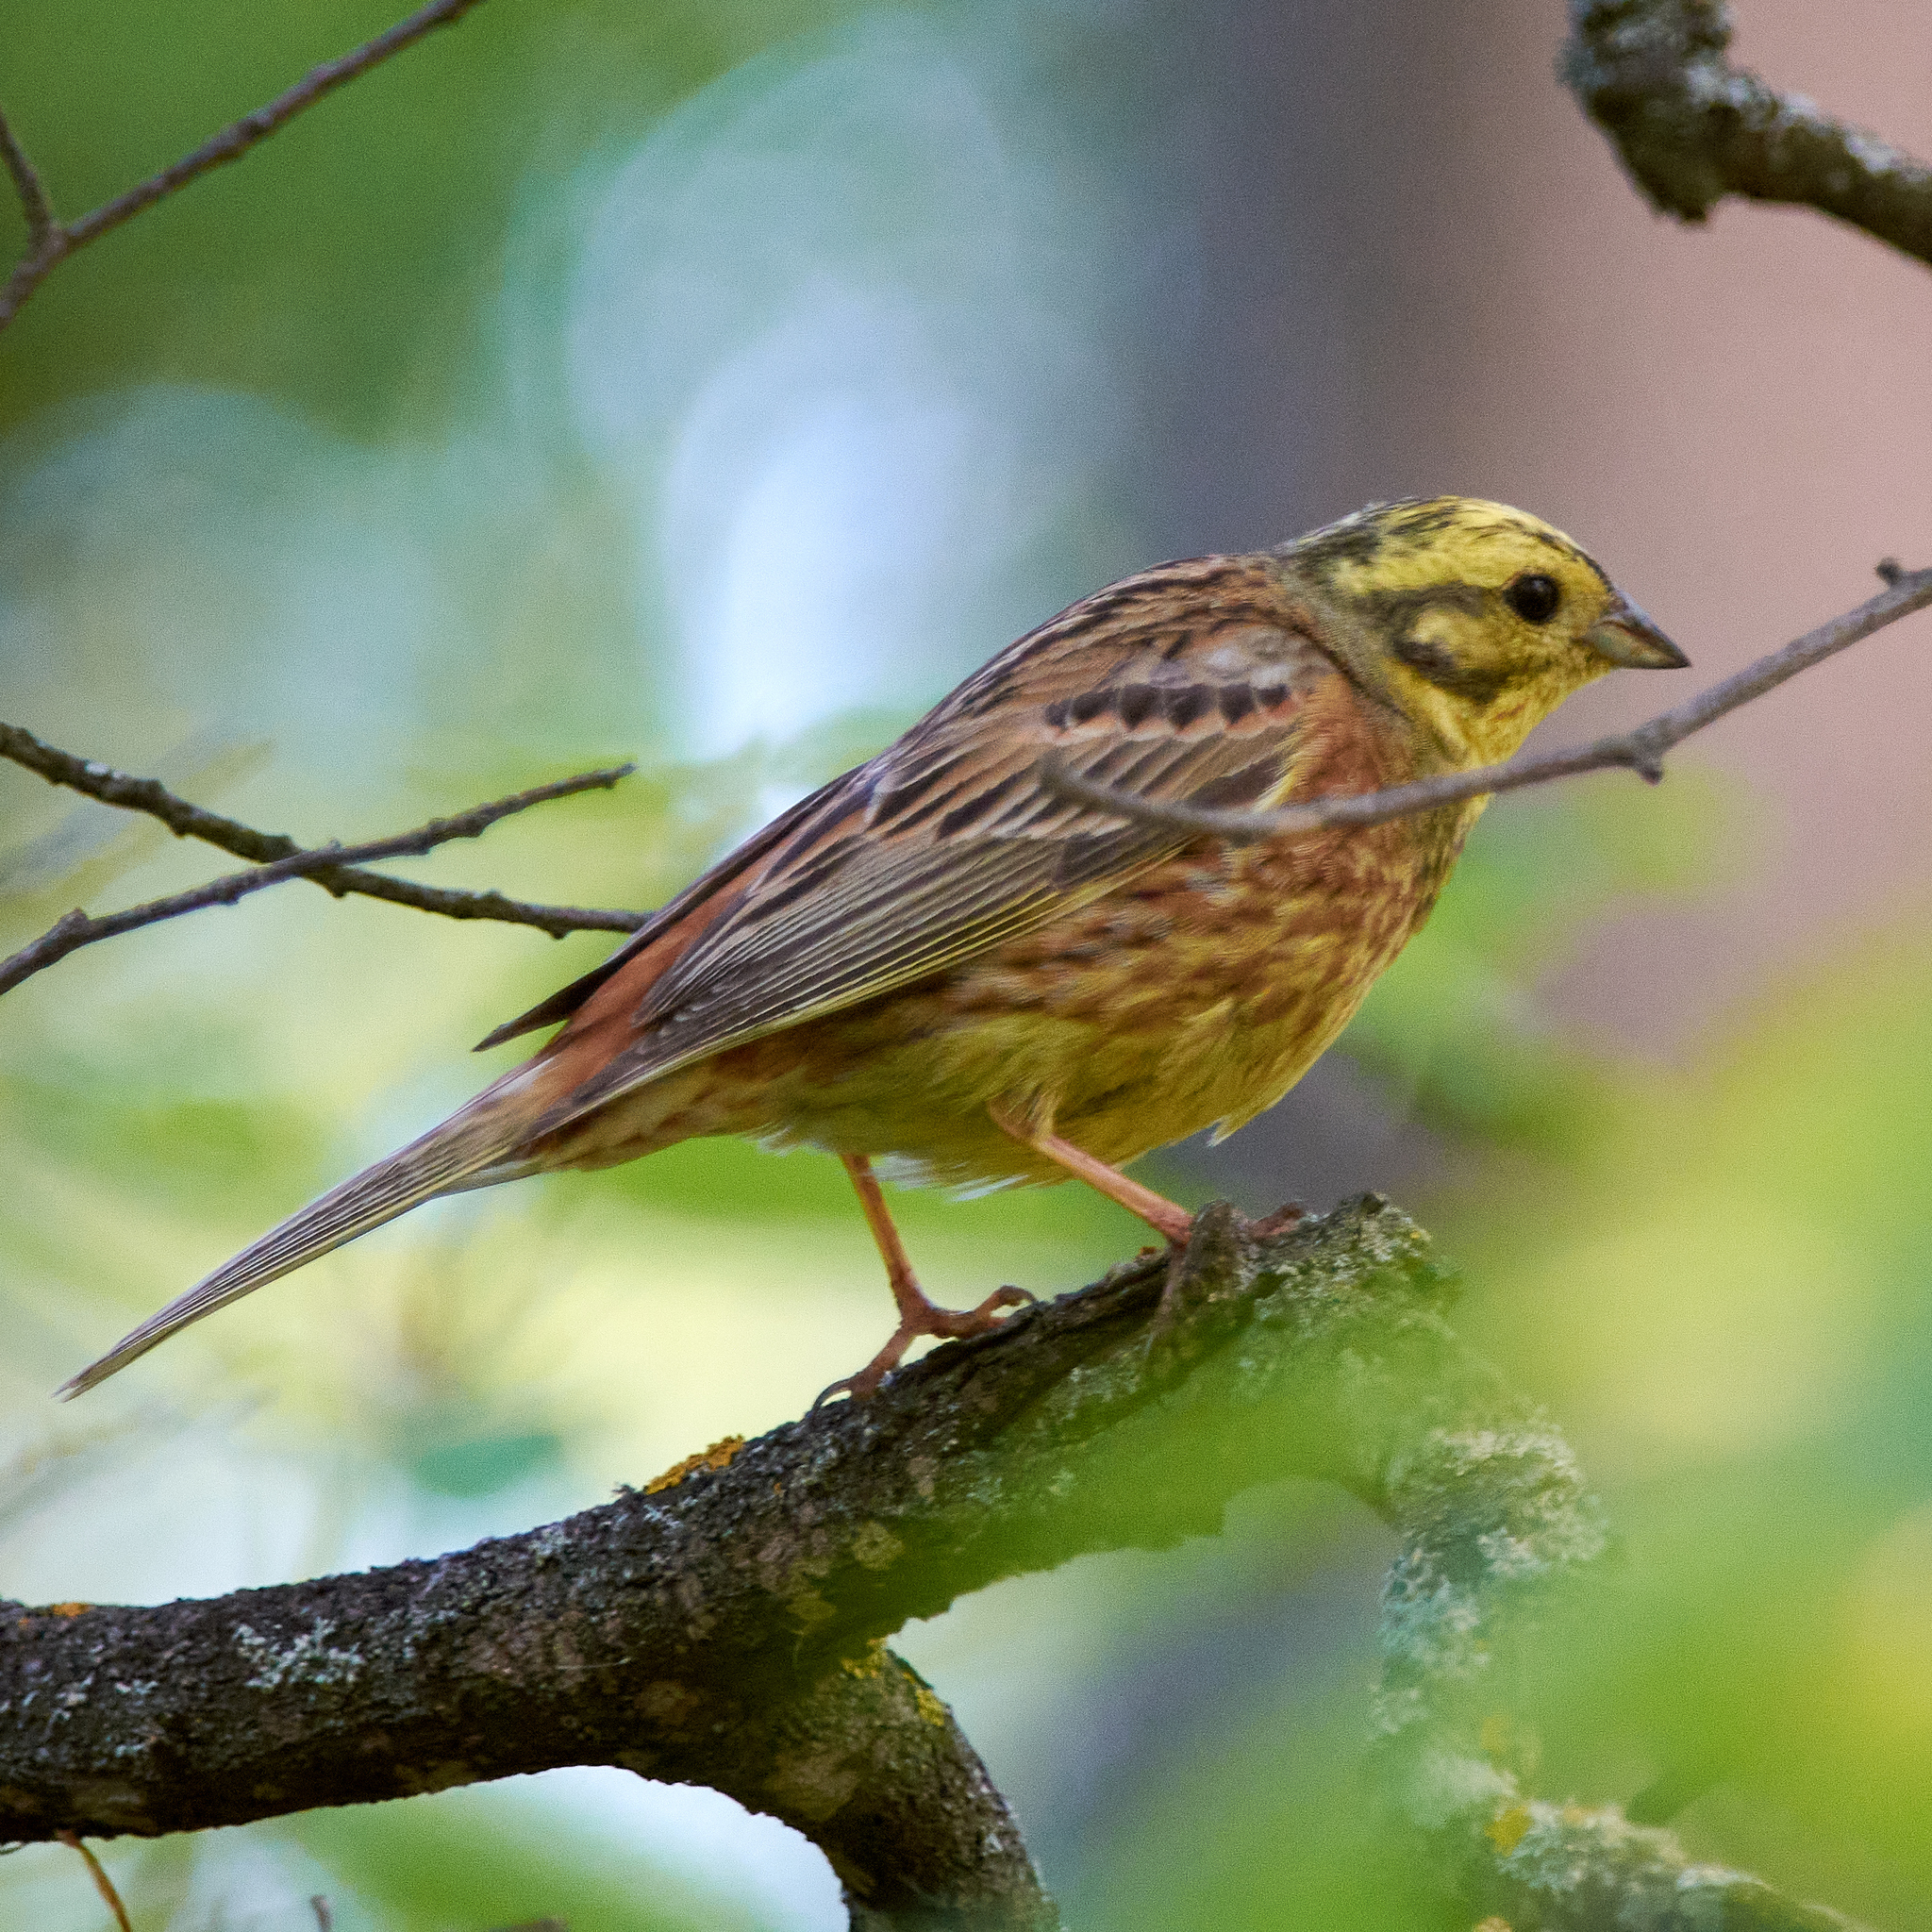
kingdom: Animalia
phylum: Chordata
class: Aves
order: Passeriformes
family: Emberizidae
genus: Emberiza
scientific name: Emberiza citrinella
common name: Yellowhammer
